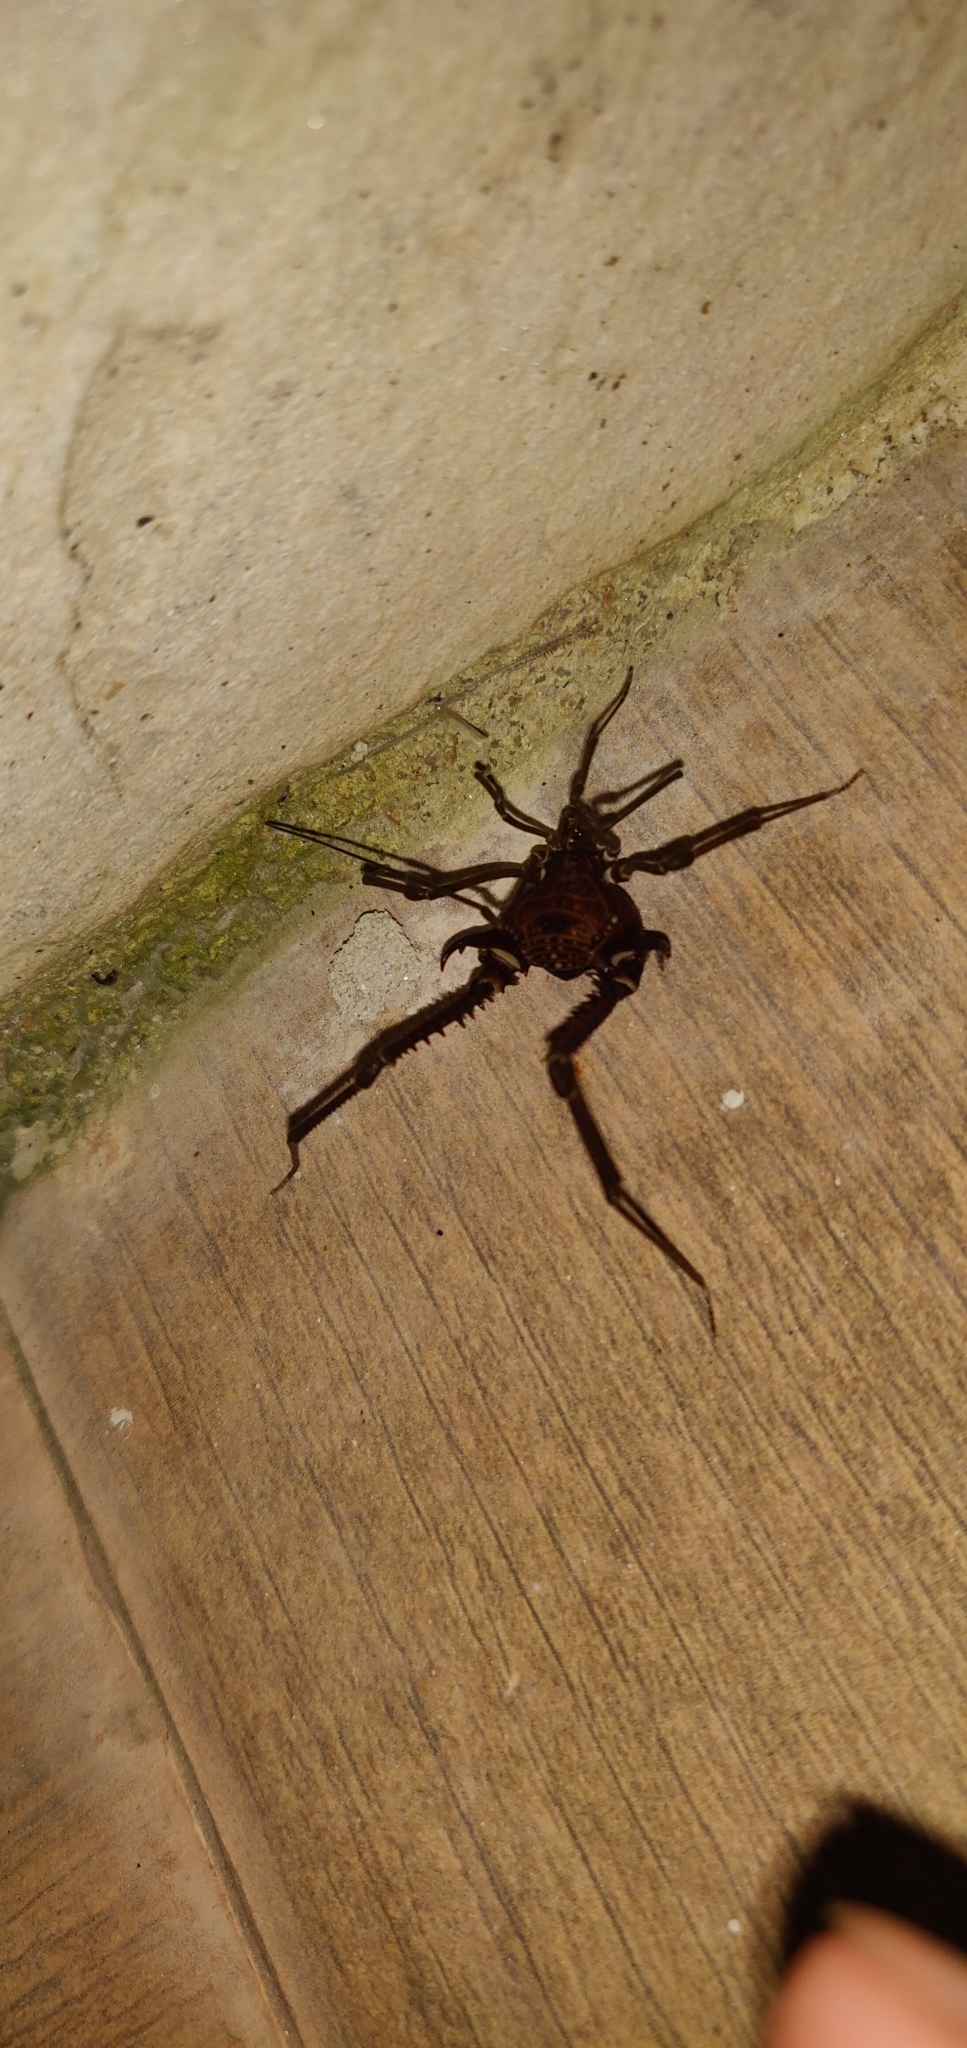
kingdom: Animalia
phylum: Arthropoda
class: Arachnida
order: Opiliones
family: Gonyleptidae
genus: Gonyleptes
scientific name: Gonyleptes horridus
